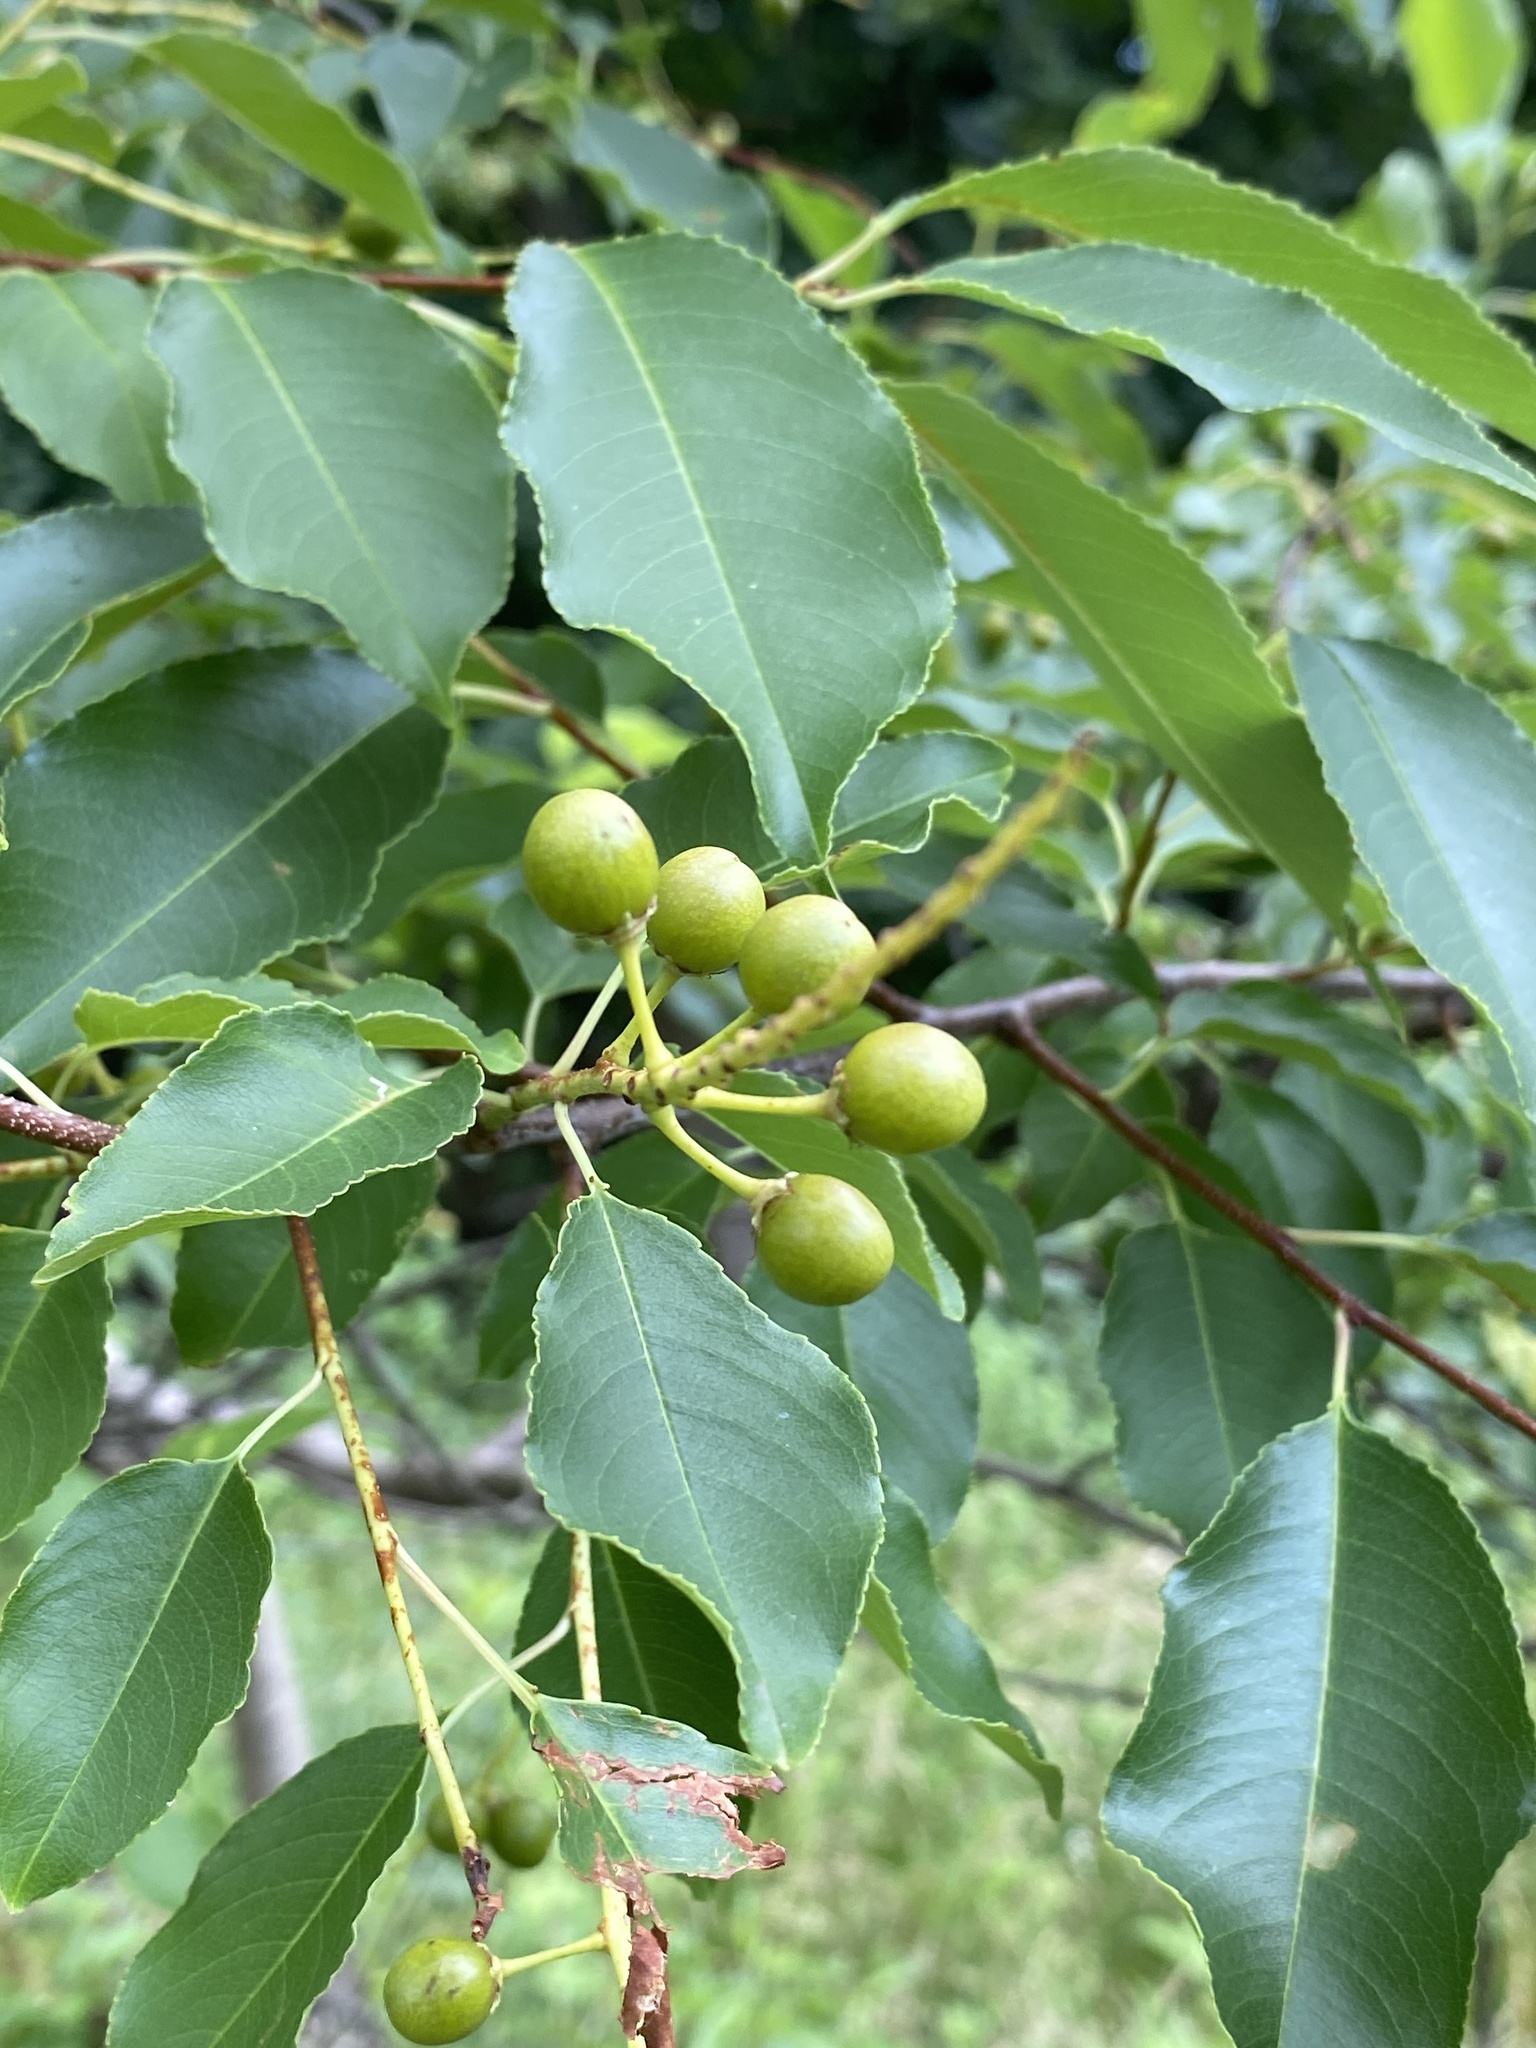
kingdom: Plantae
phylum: Tracheophyta
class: Magnoliopsida
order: Rosales
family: Rosaceae
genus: Prunus
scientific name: Prunus serotina
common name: Black cherry
